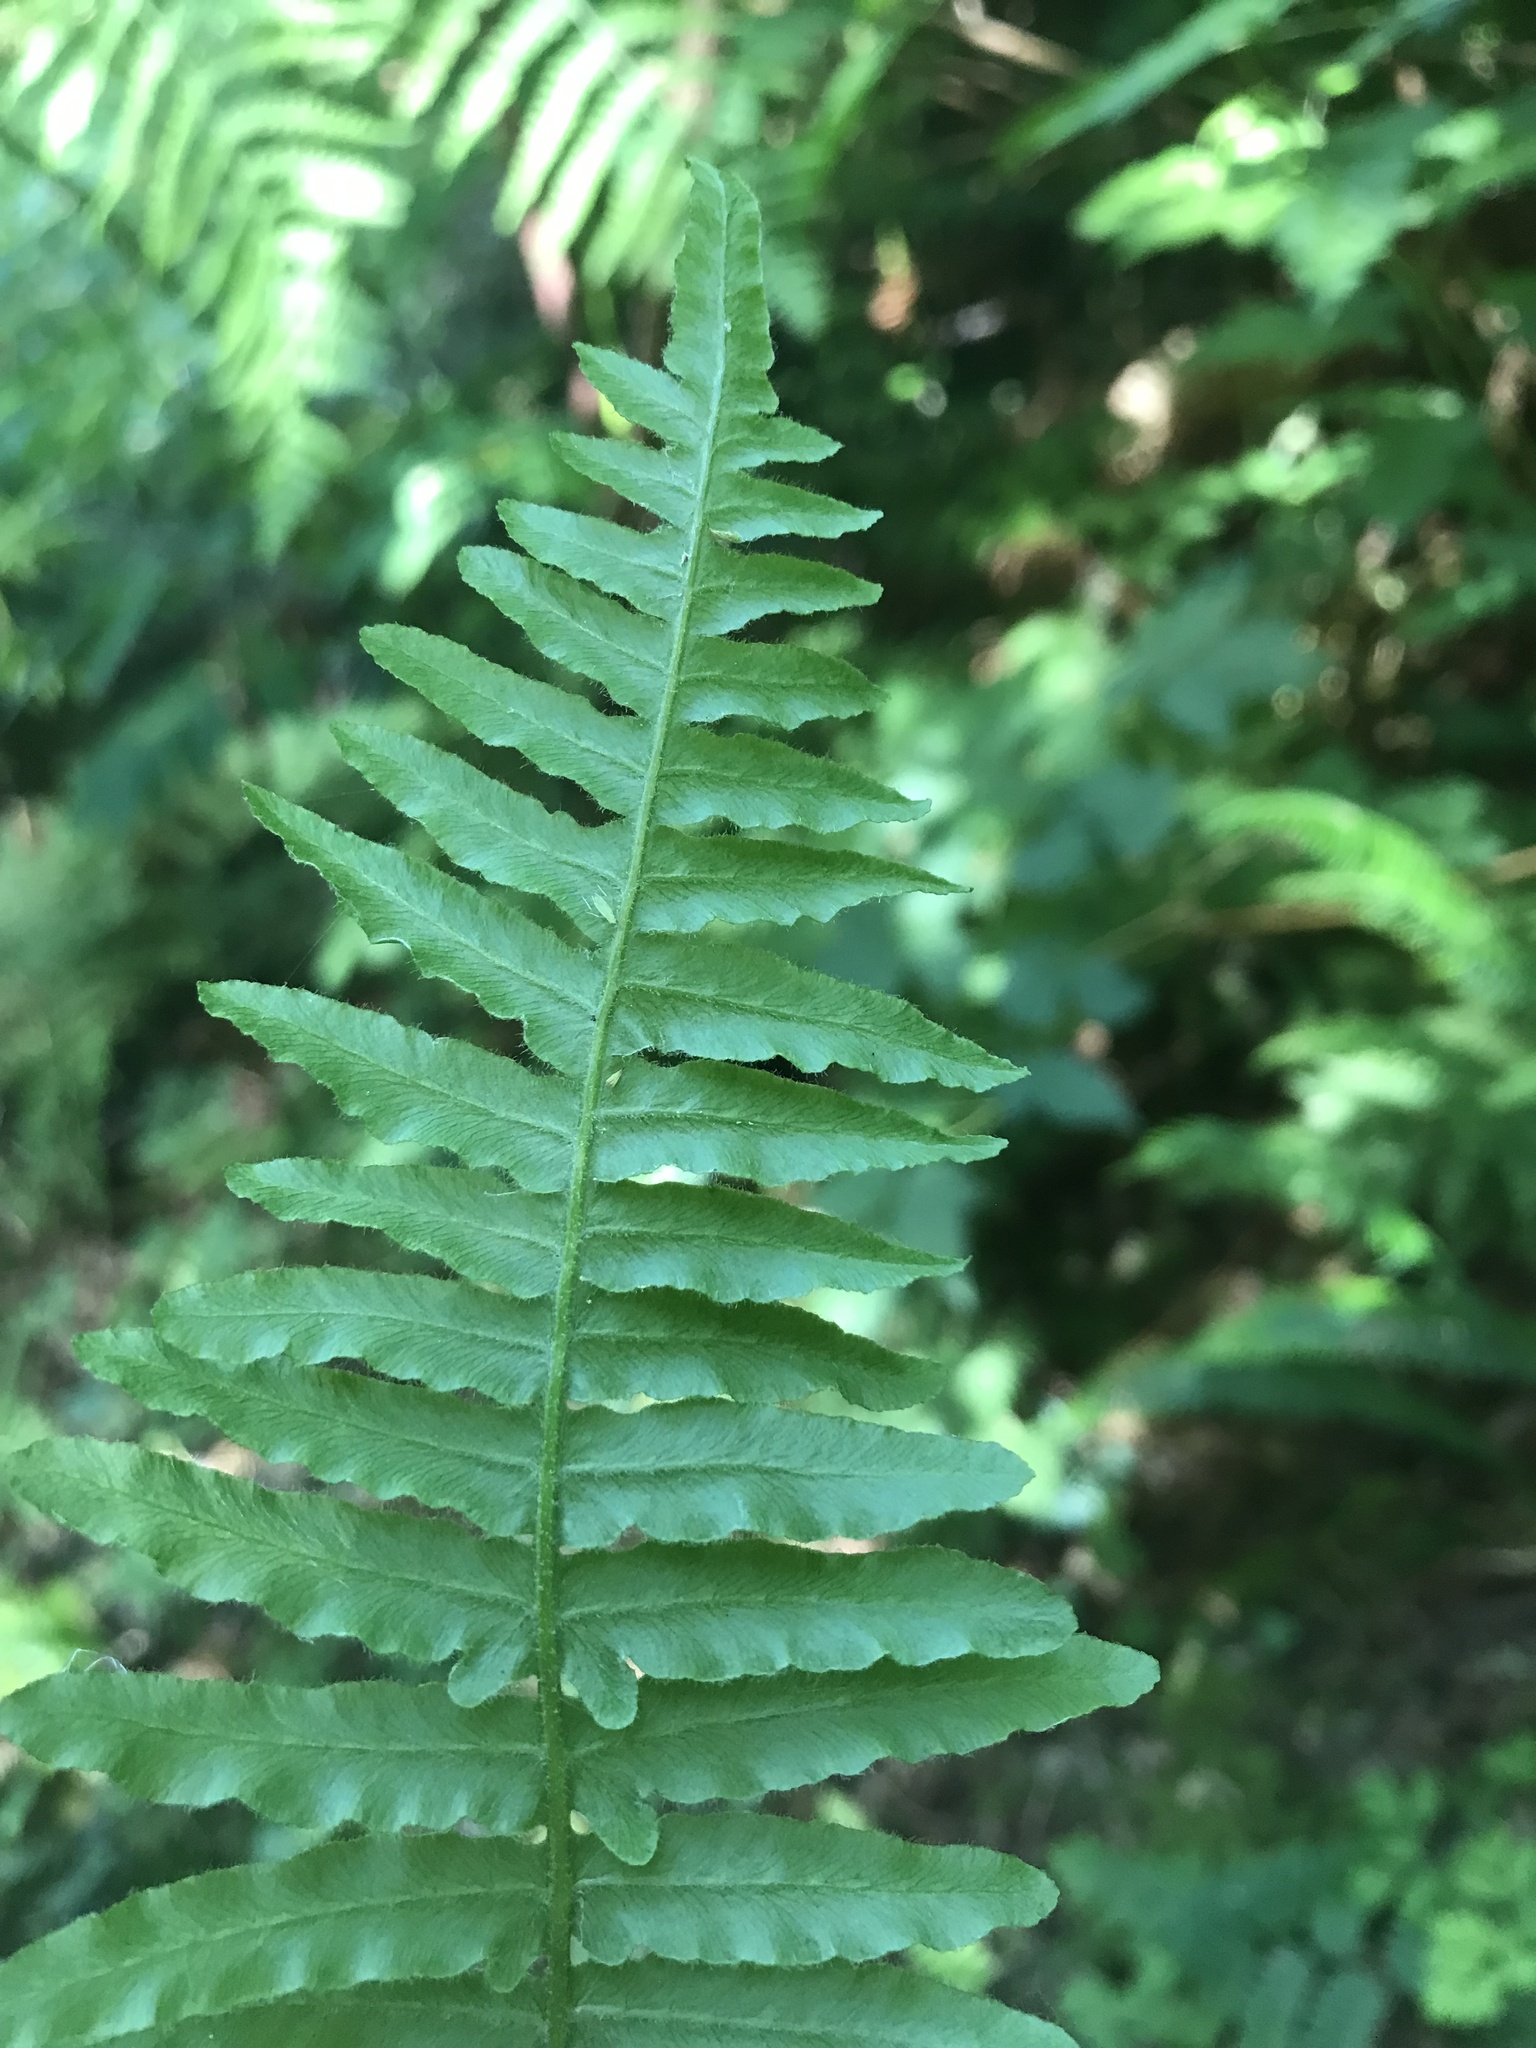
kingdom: Plantae
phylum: Tracheophyta
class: Polypodiopsida
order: Polypodiales
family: Dennstaedtiaceae
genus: Pteridium
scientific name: Pteridium aquilinum
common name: Bracken
